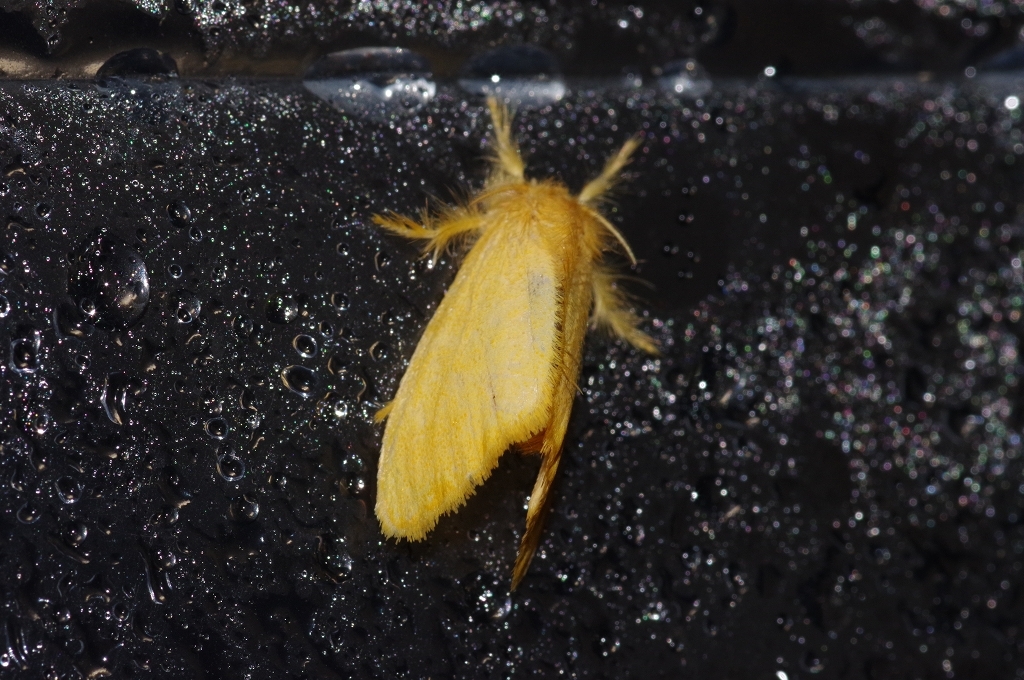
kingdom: Animalia
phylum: Arthropoda
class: Insecta
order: Lepidoptera
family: Erebidae
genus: Euproctis
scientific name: Euproctis taiwana
